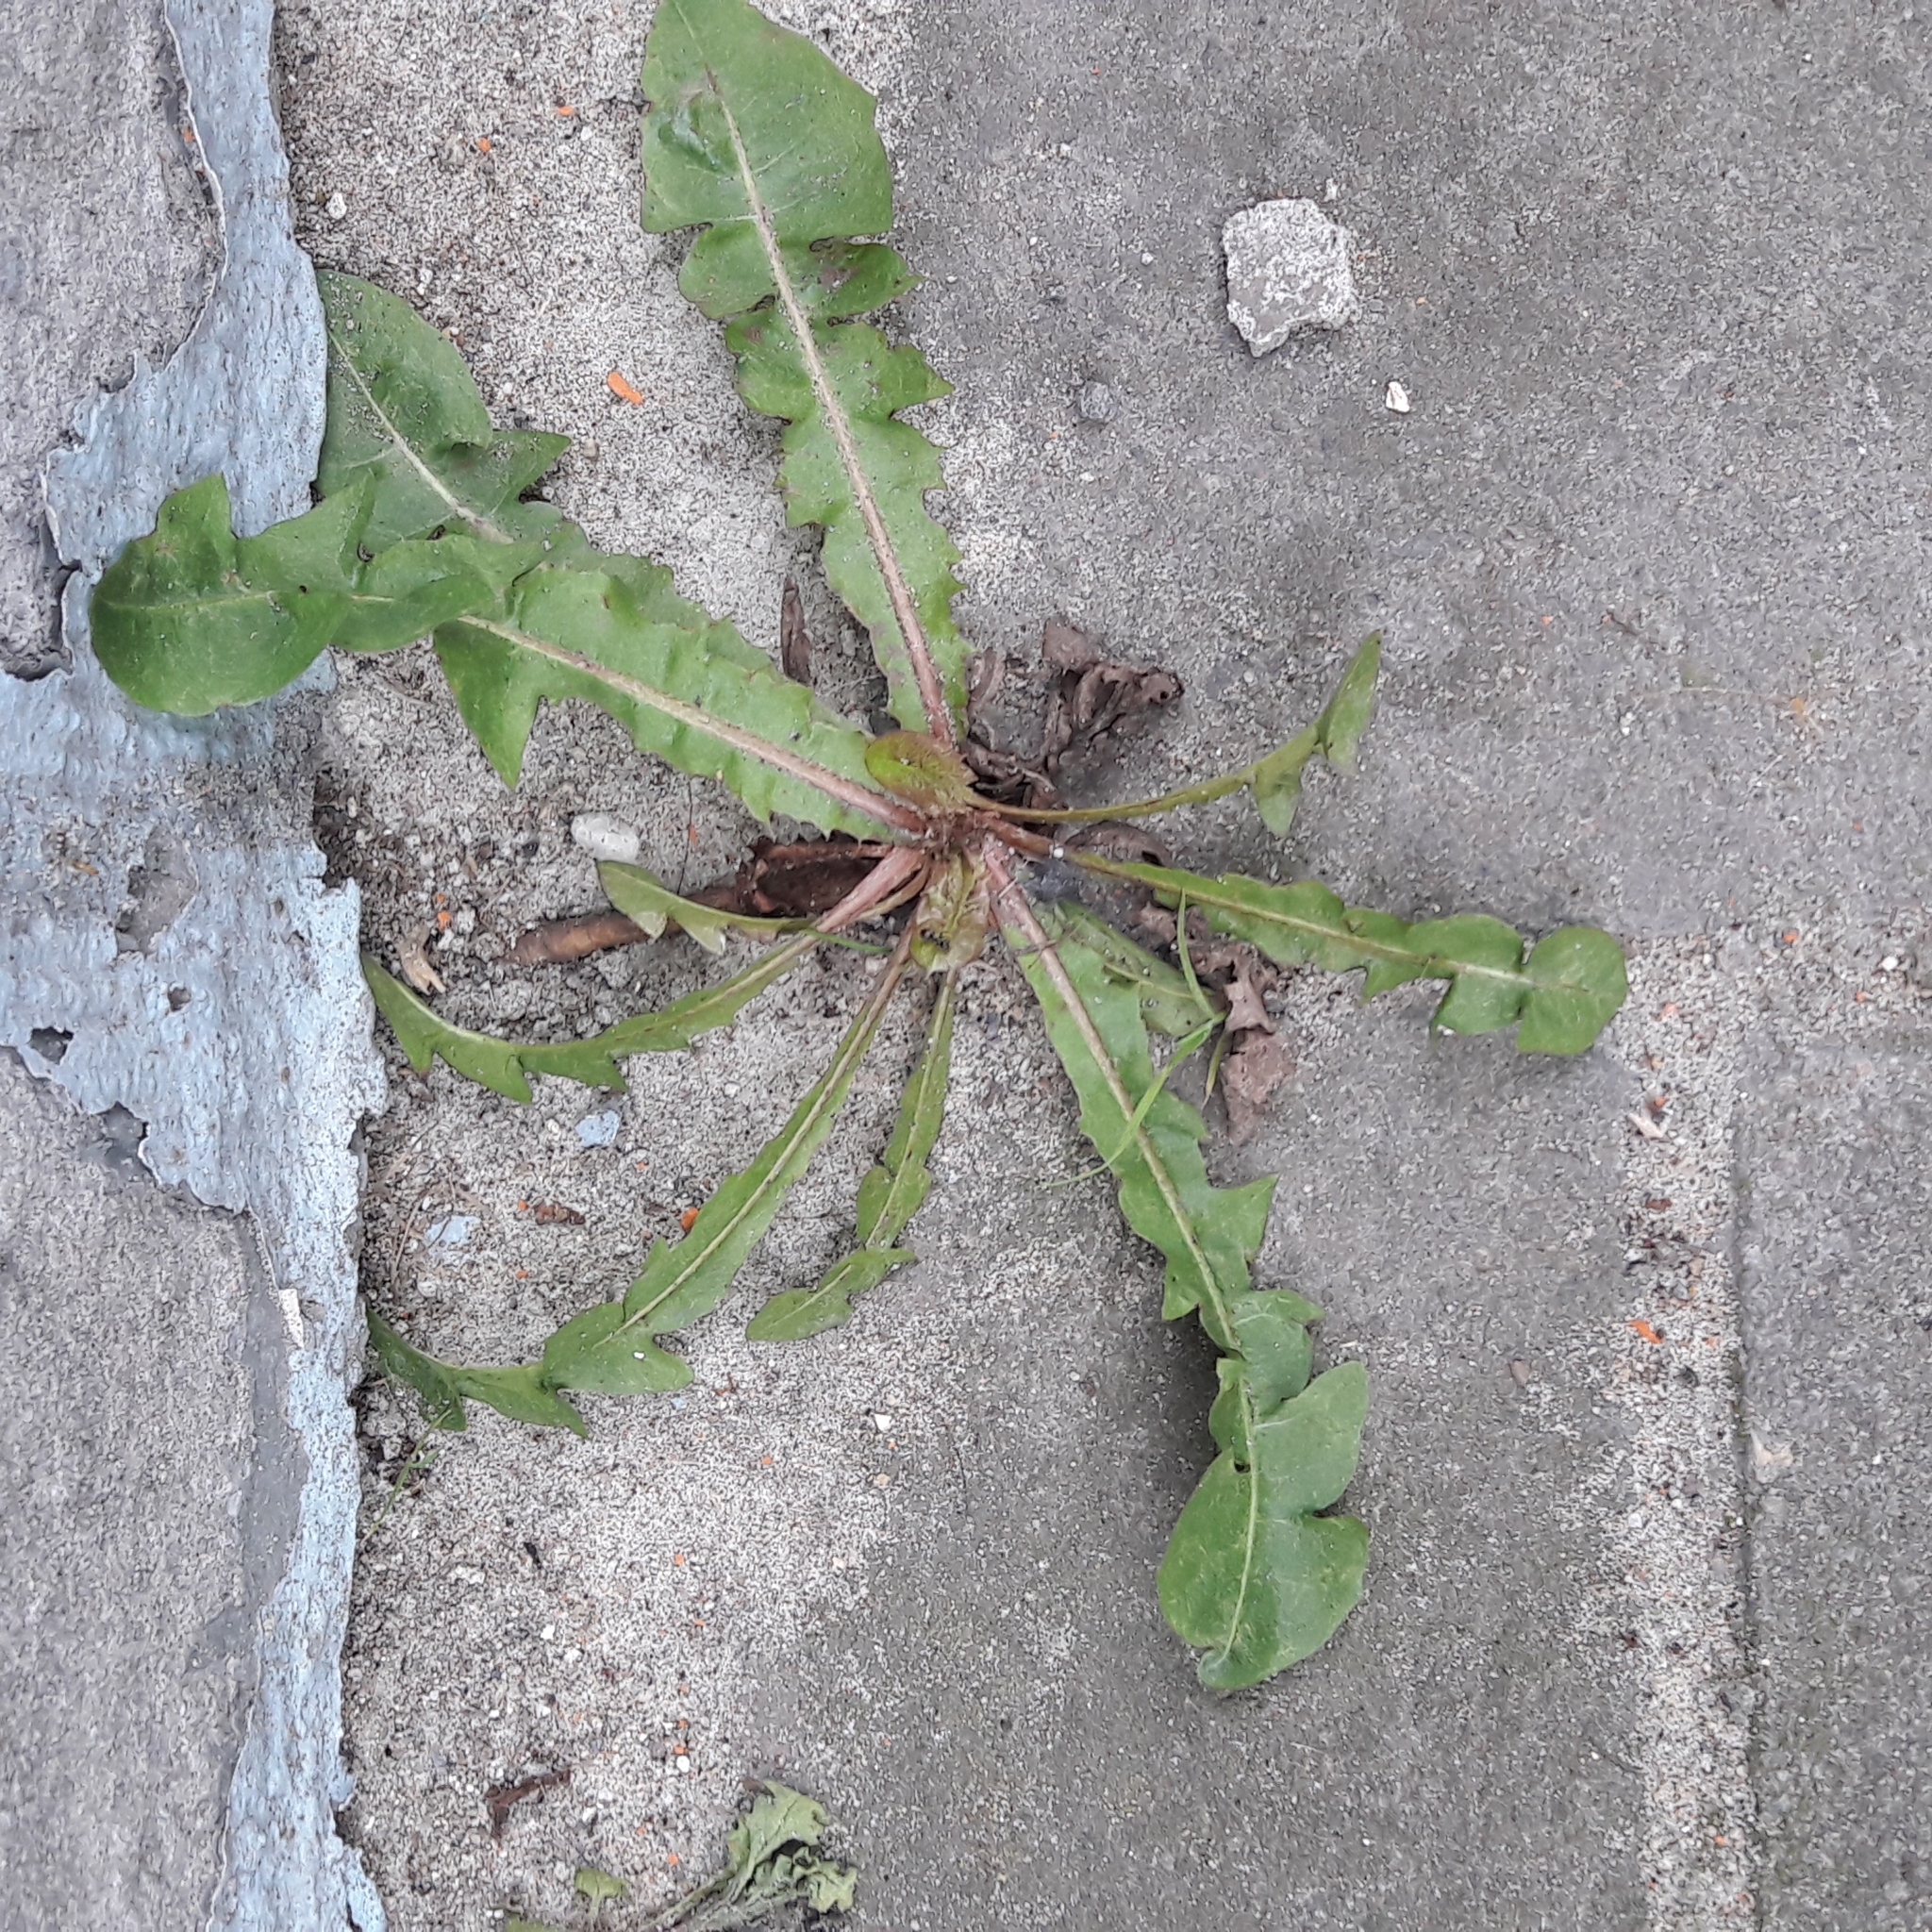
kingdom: Plantae
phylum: Tracheophyta
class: Magnoliopsida
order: Asterales
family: Asteraceae
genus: Taraxacum
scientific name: Taraxacum officinale
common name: Common dandelion
